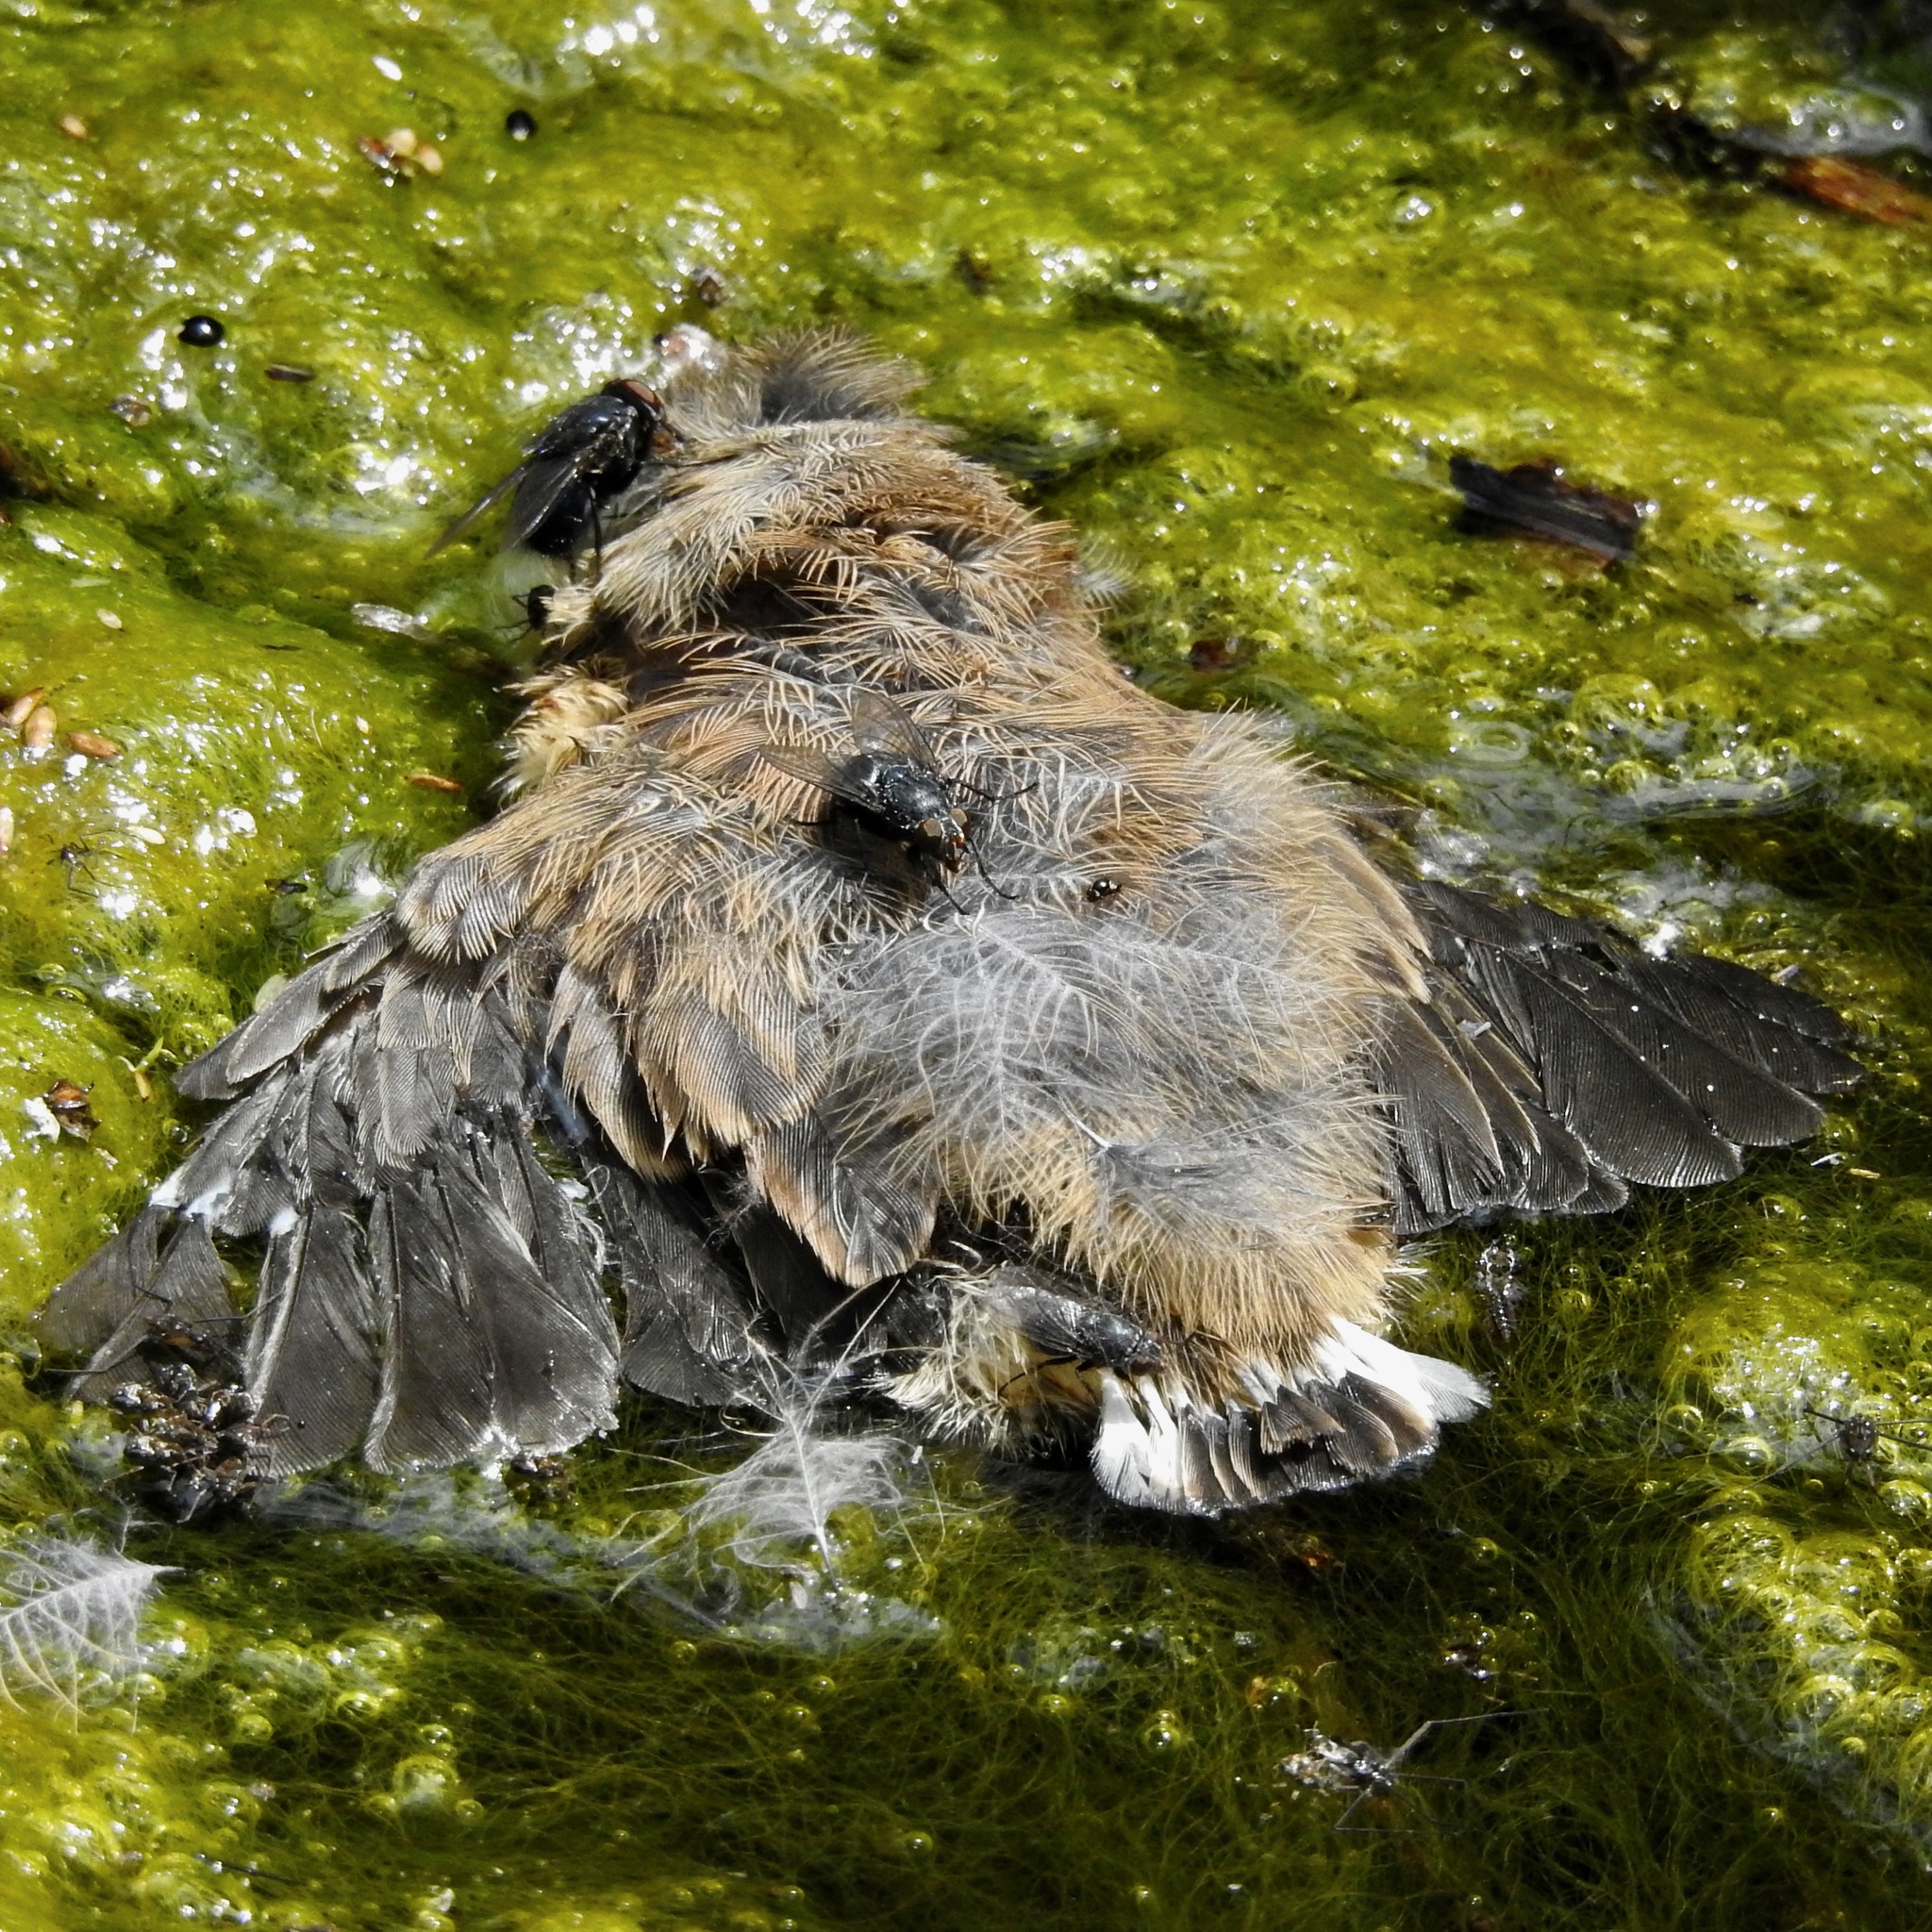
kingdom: Animalia
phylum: Chordata
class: Aves
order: Passeriformes
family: Passerellidae
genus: Junco
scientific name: Junco hyemalis
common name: Dark-eyed junco
